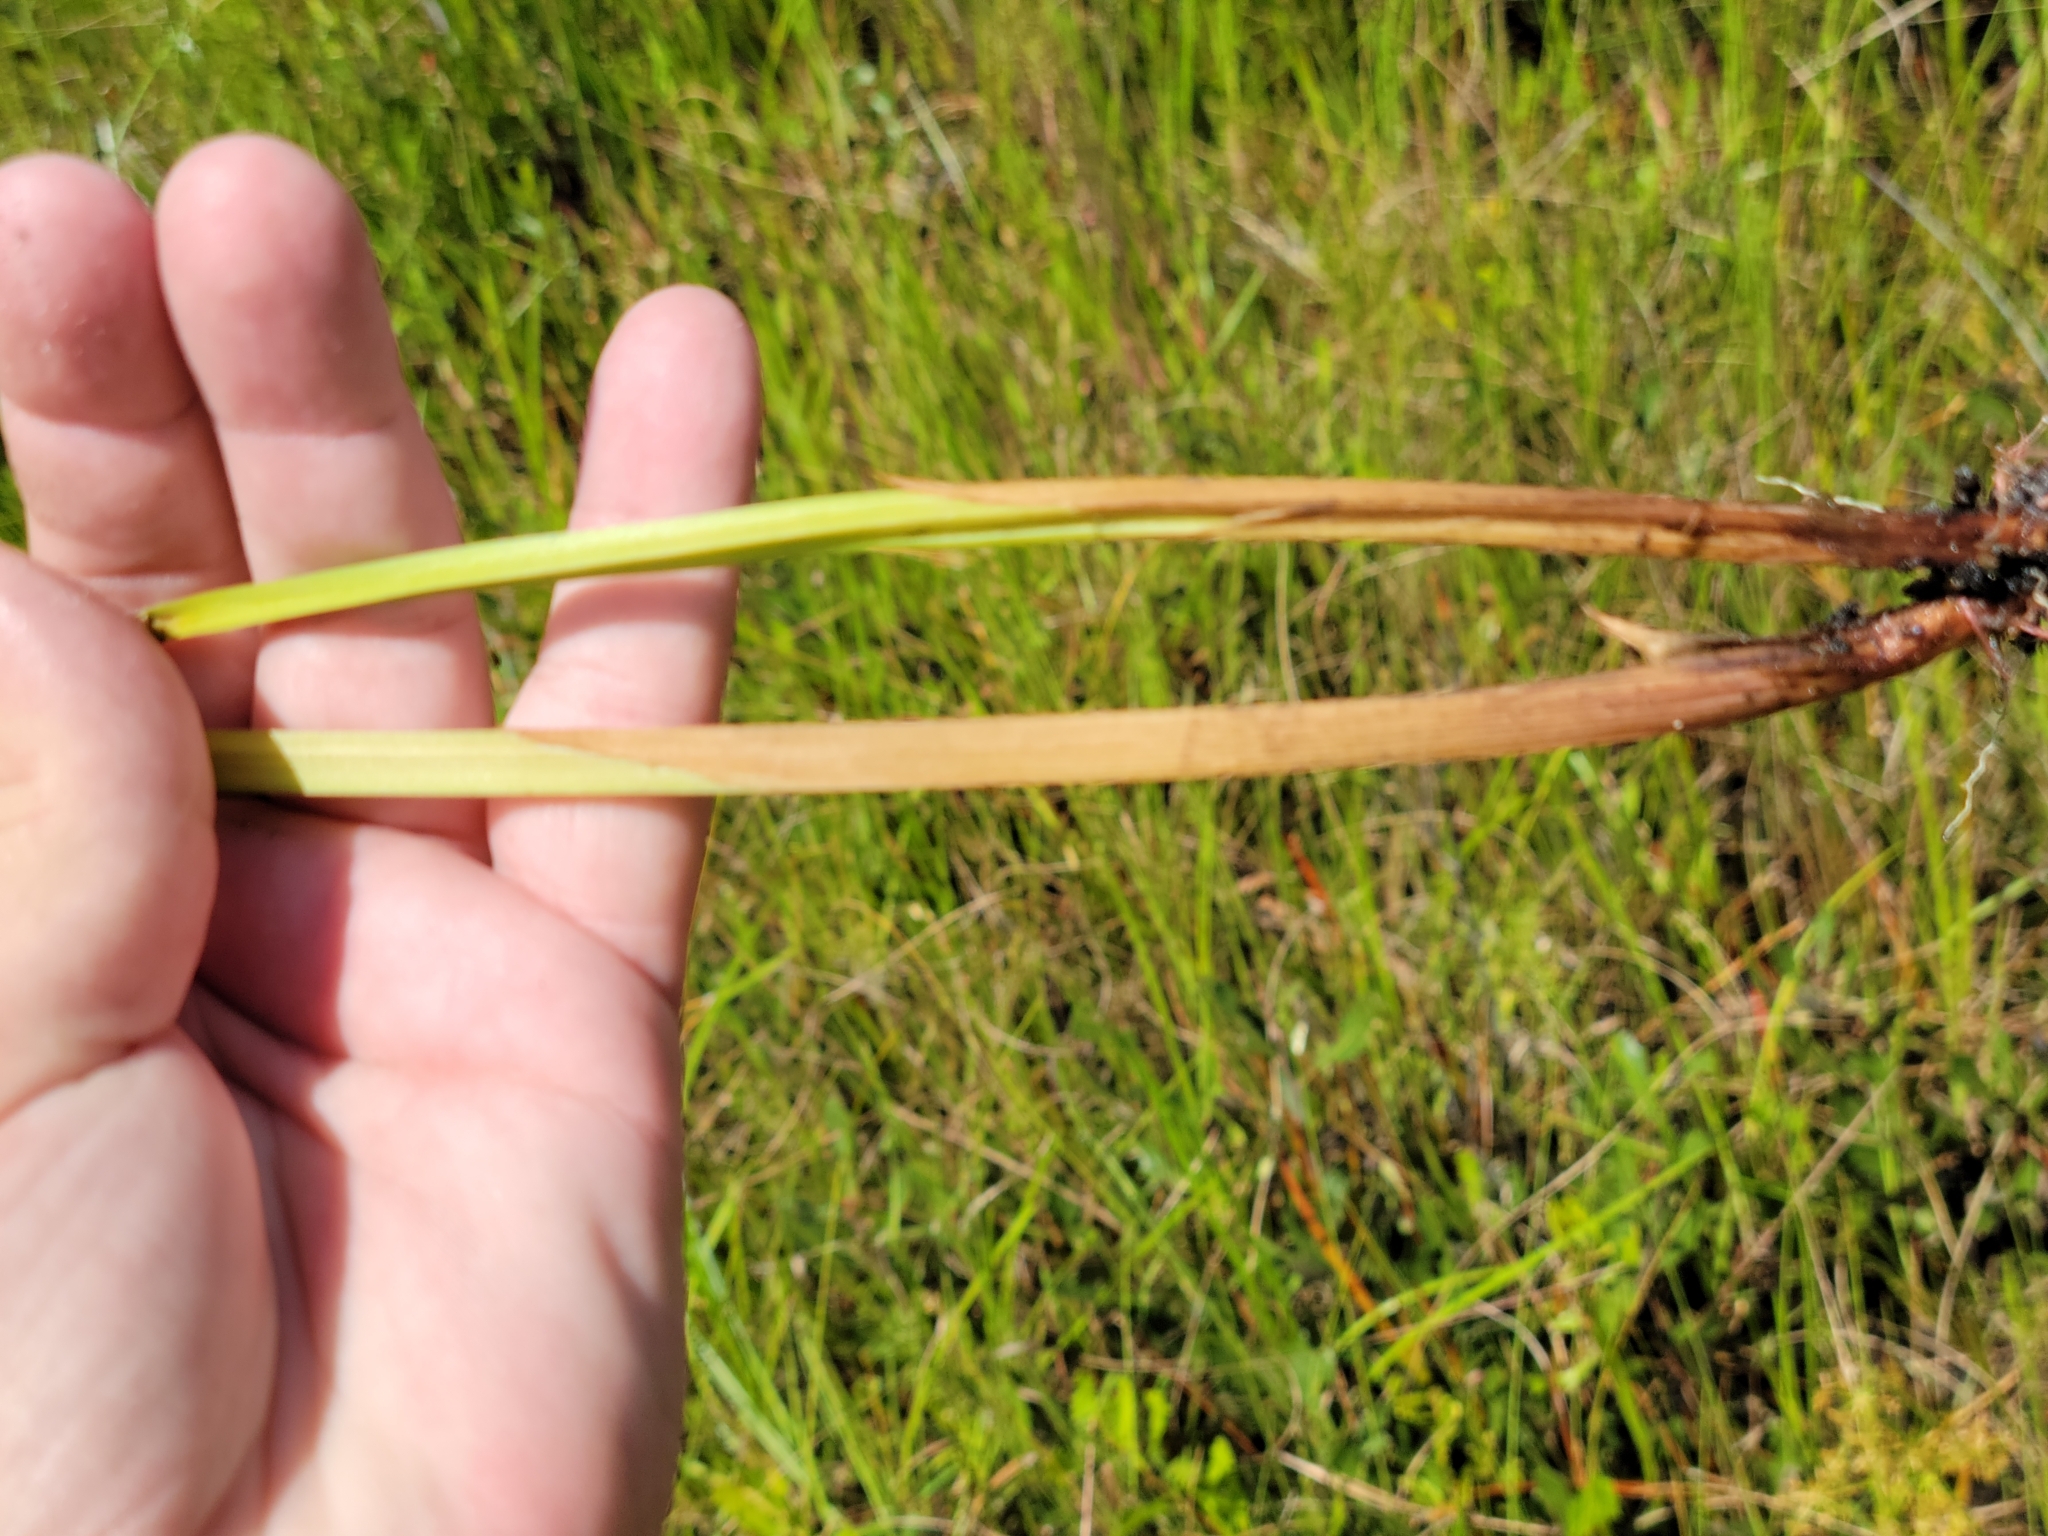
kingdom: Plantae
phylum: Tracheophyta
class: Liliopsida
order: Poales
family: Cyperaceae
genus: Cyperus
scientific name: Cyperus haspan
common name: Haspan flatsedge
